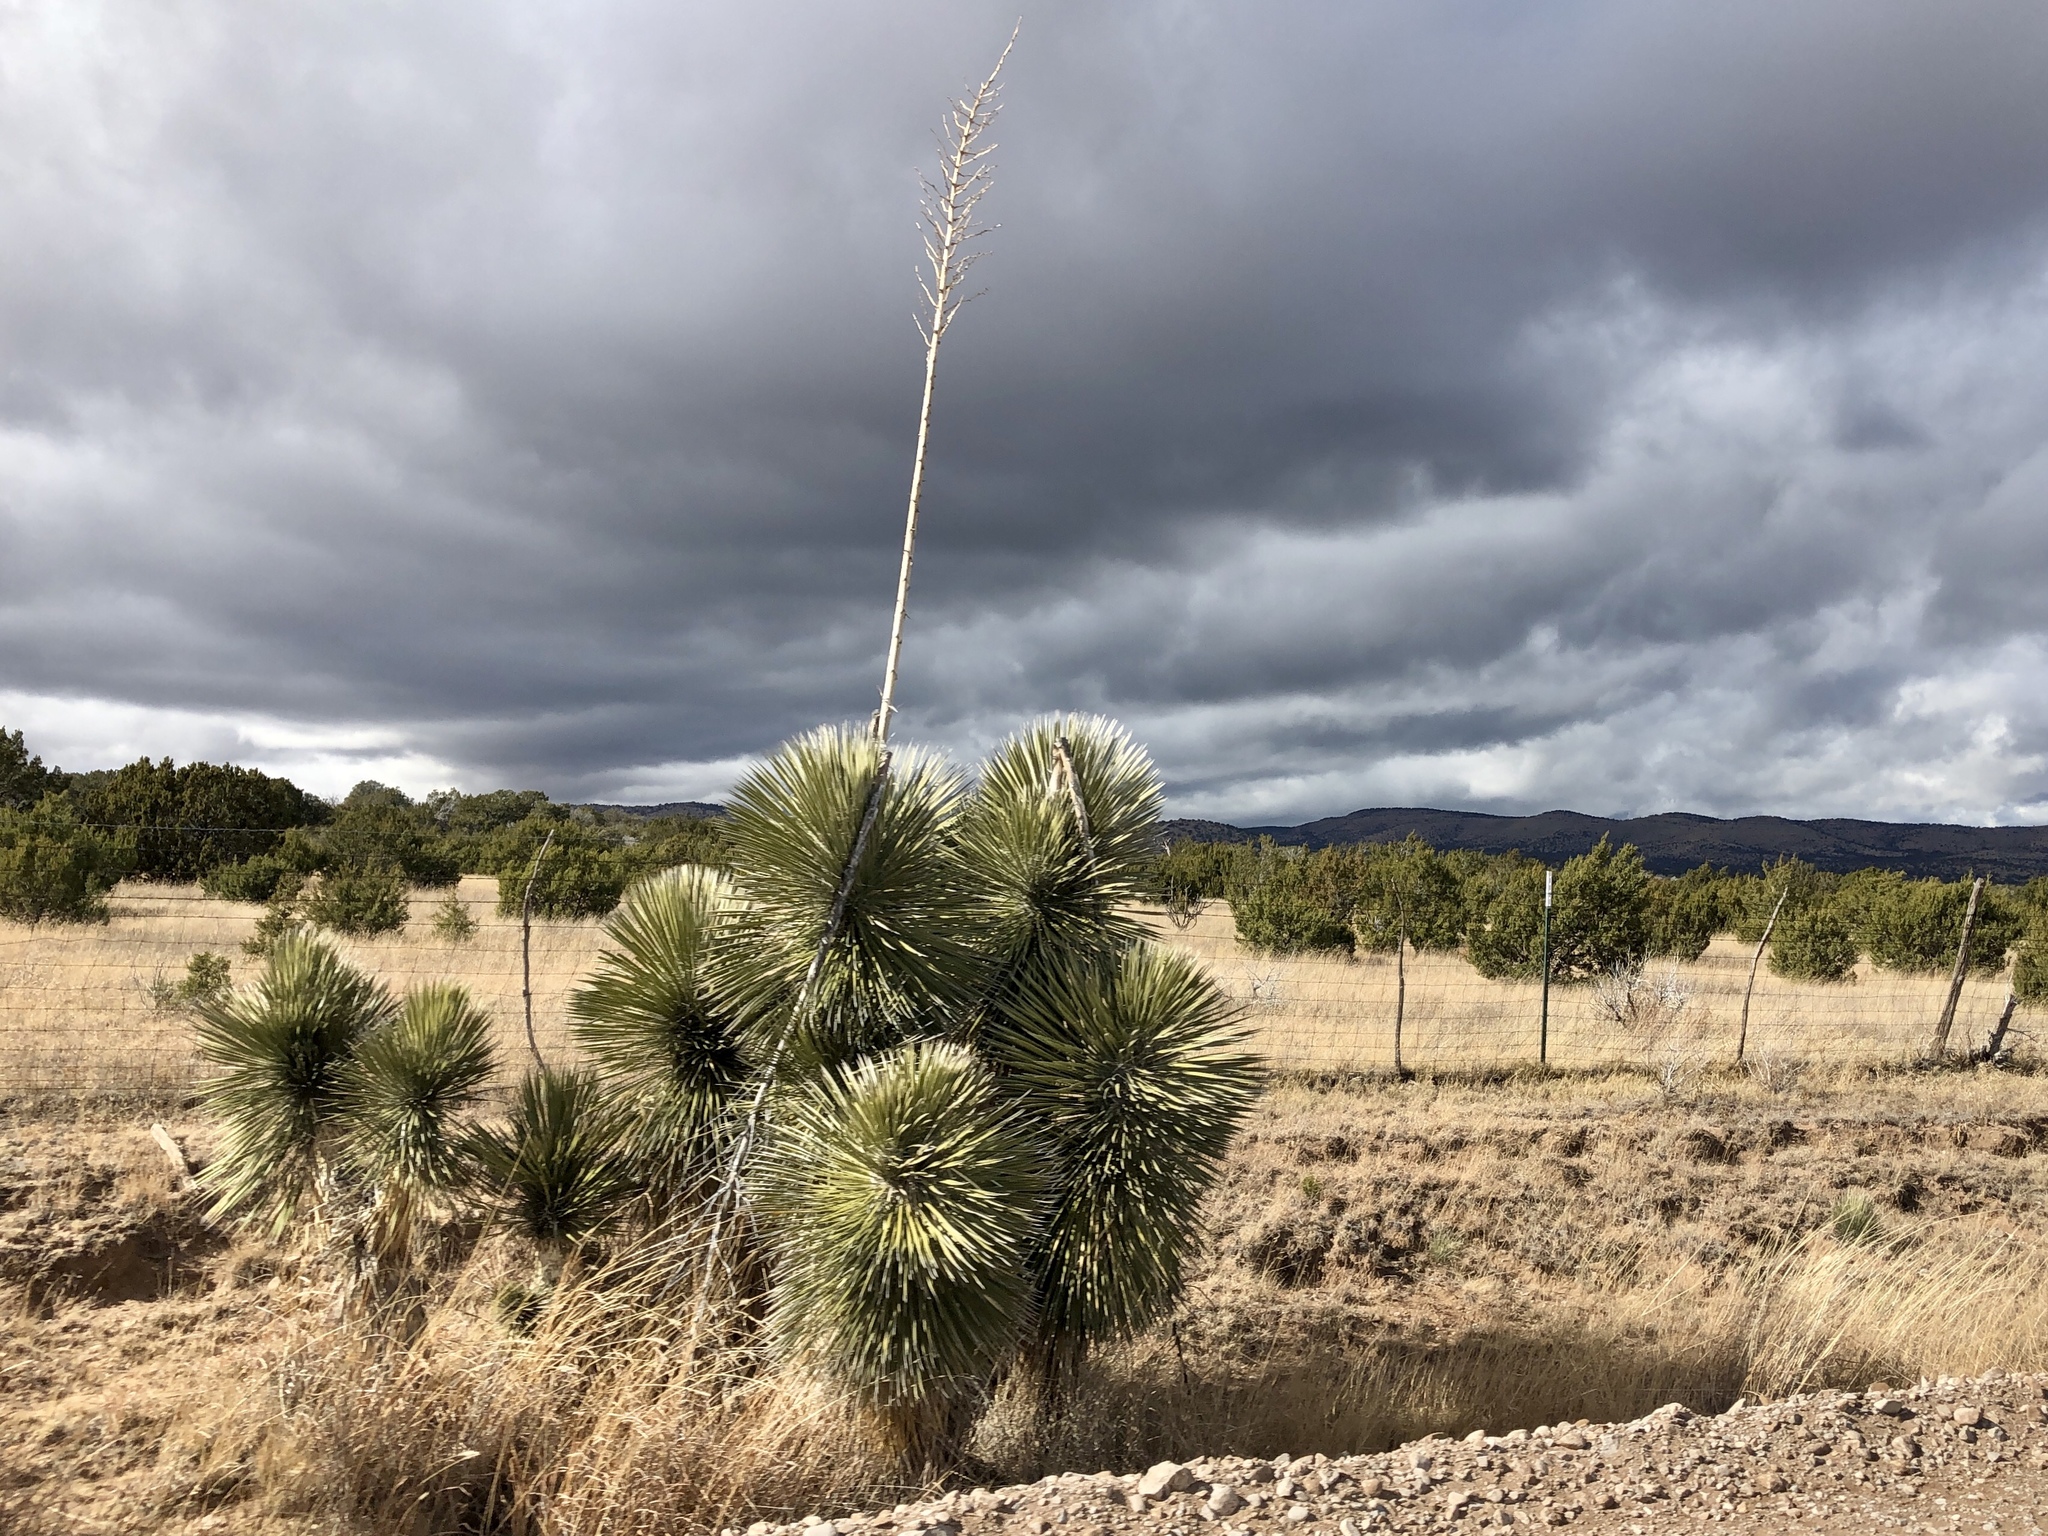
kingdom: Plantae
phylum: Tracheophyta
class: Liliopsida
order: Asparagales
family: Asparagaceae
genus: Yucca
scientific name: Yucca elata
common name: Palmella
